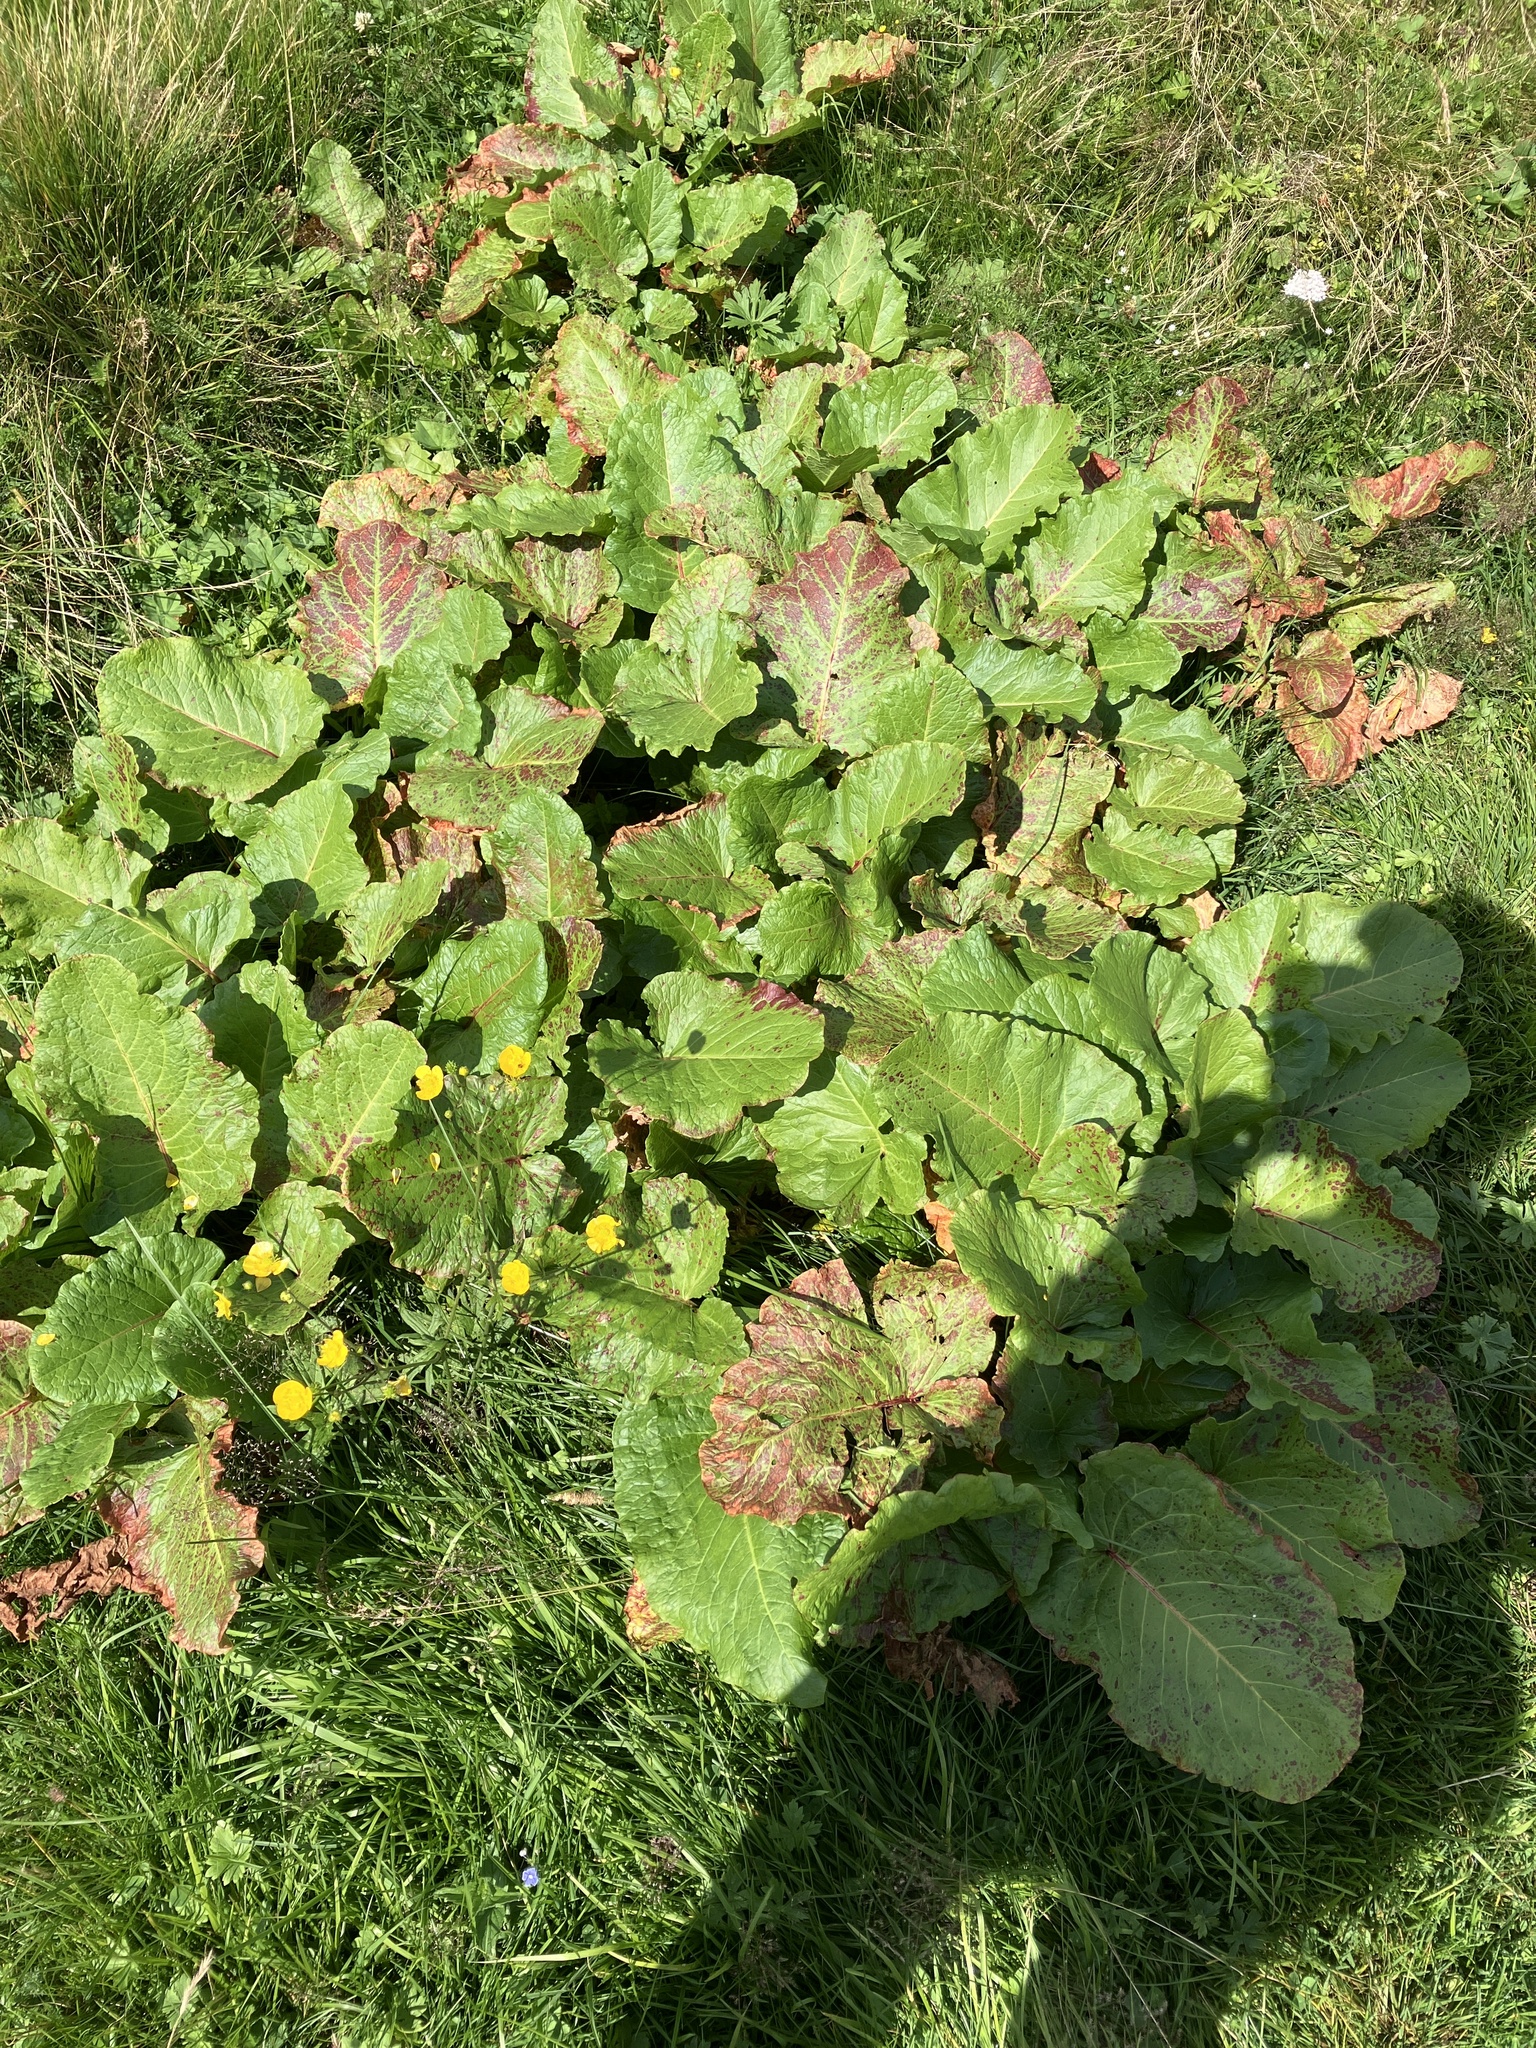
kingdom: Plantae
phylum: Tracheophyta
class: Magnoliopsida
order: Caryophyllales
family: Polygonaceae
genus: Rumex
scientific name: Rumex alpinus
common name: Alpine dock
